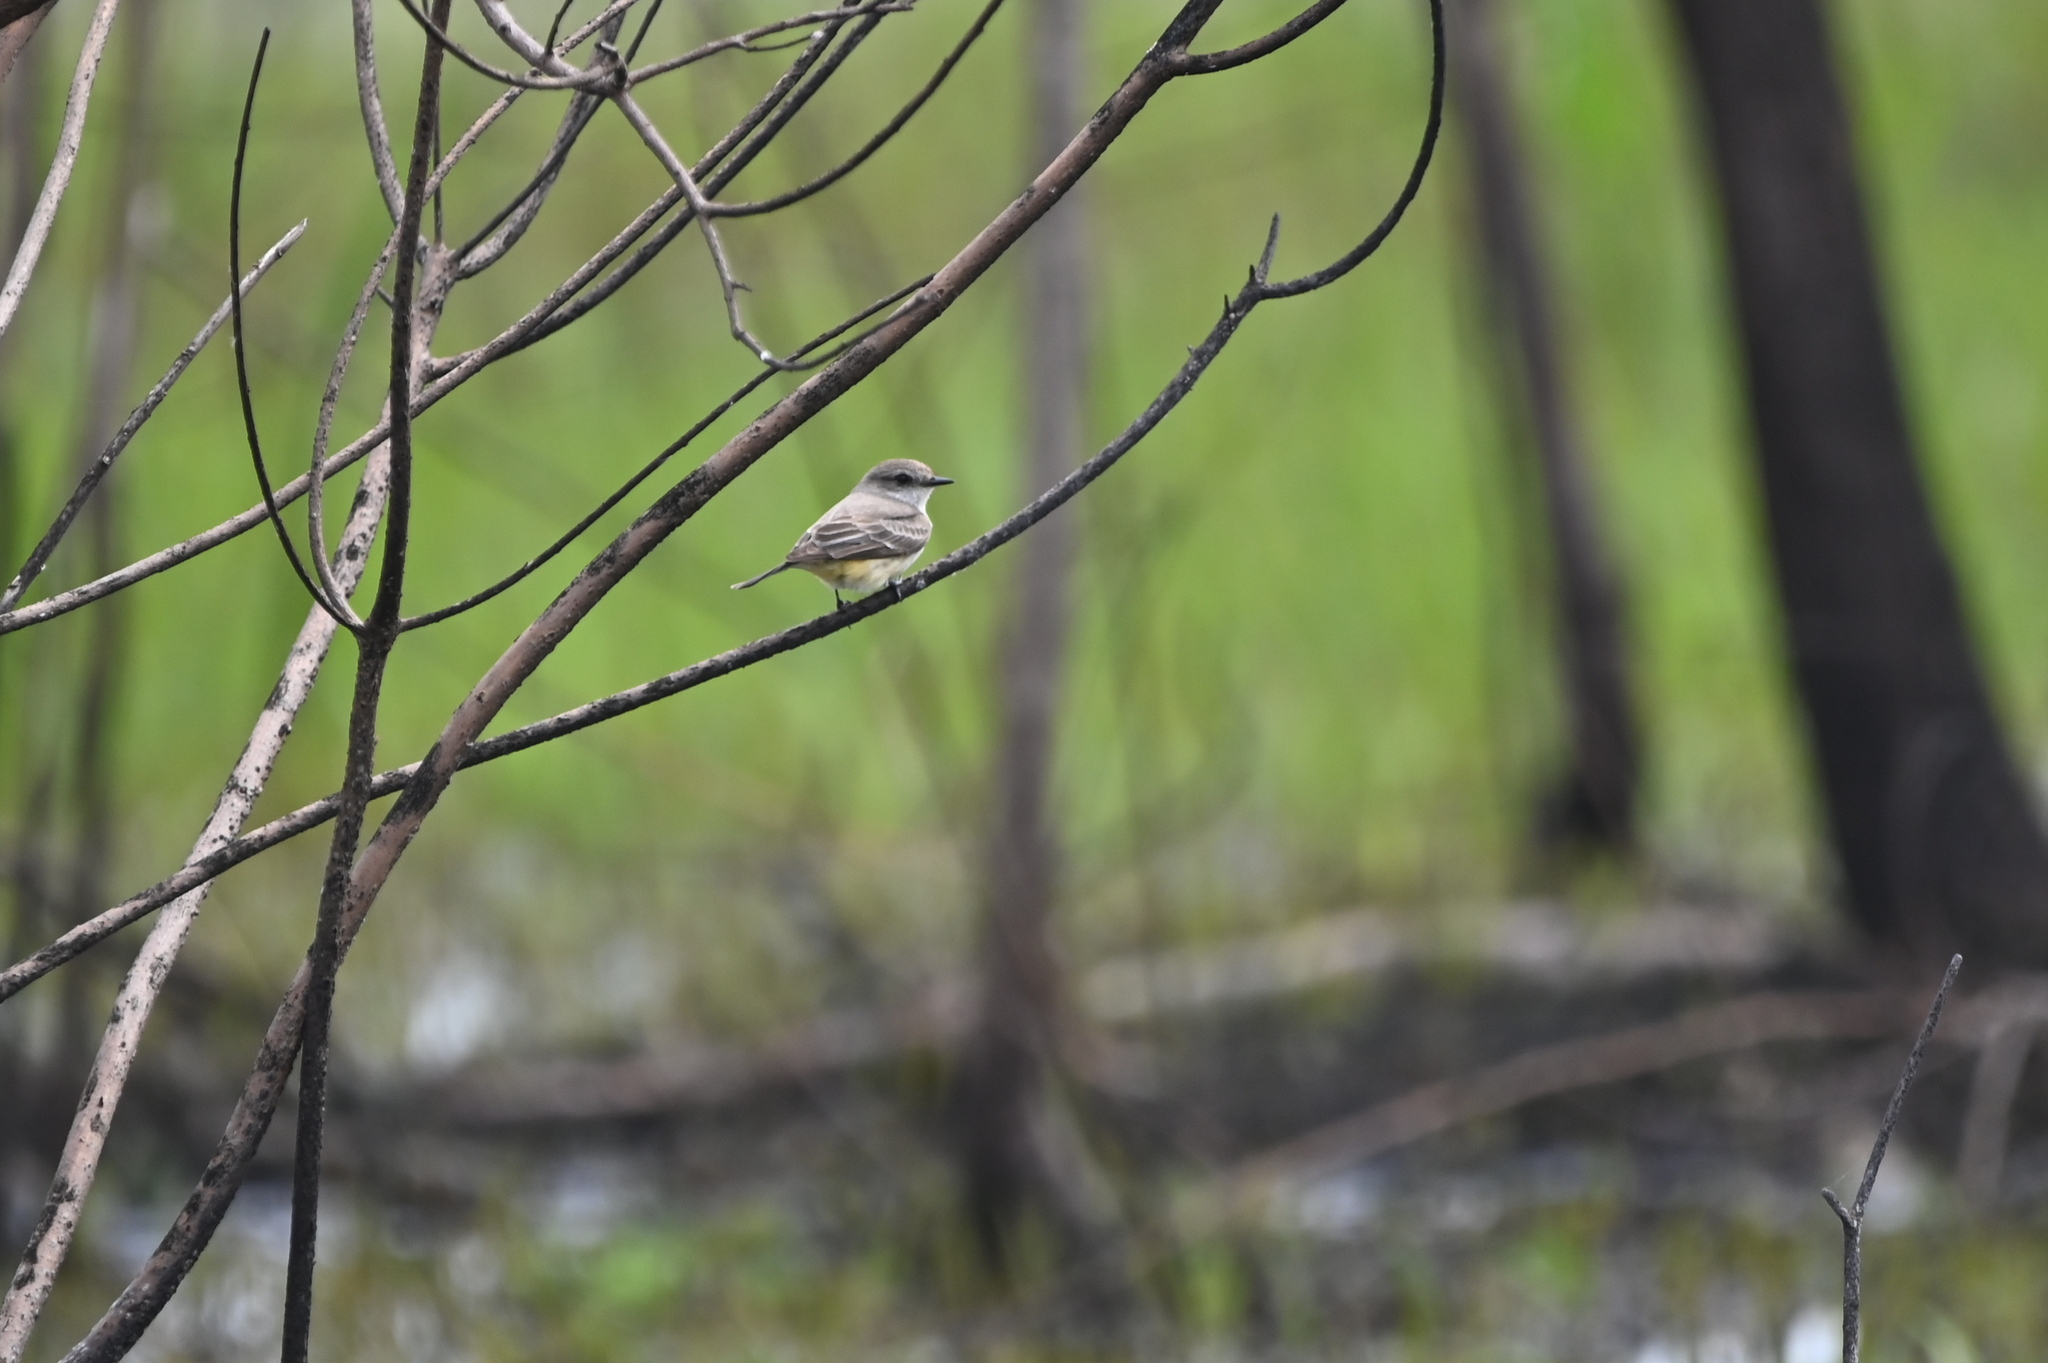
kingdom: Animalia
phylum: Chordata
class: Aves
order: Passeriformes
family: Tyrannidae
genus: Pyrocephalus
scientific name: Pyrocephalus rubinus
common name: Vermilion flycatcher
